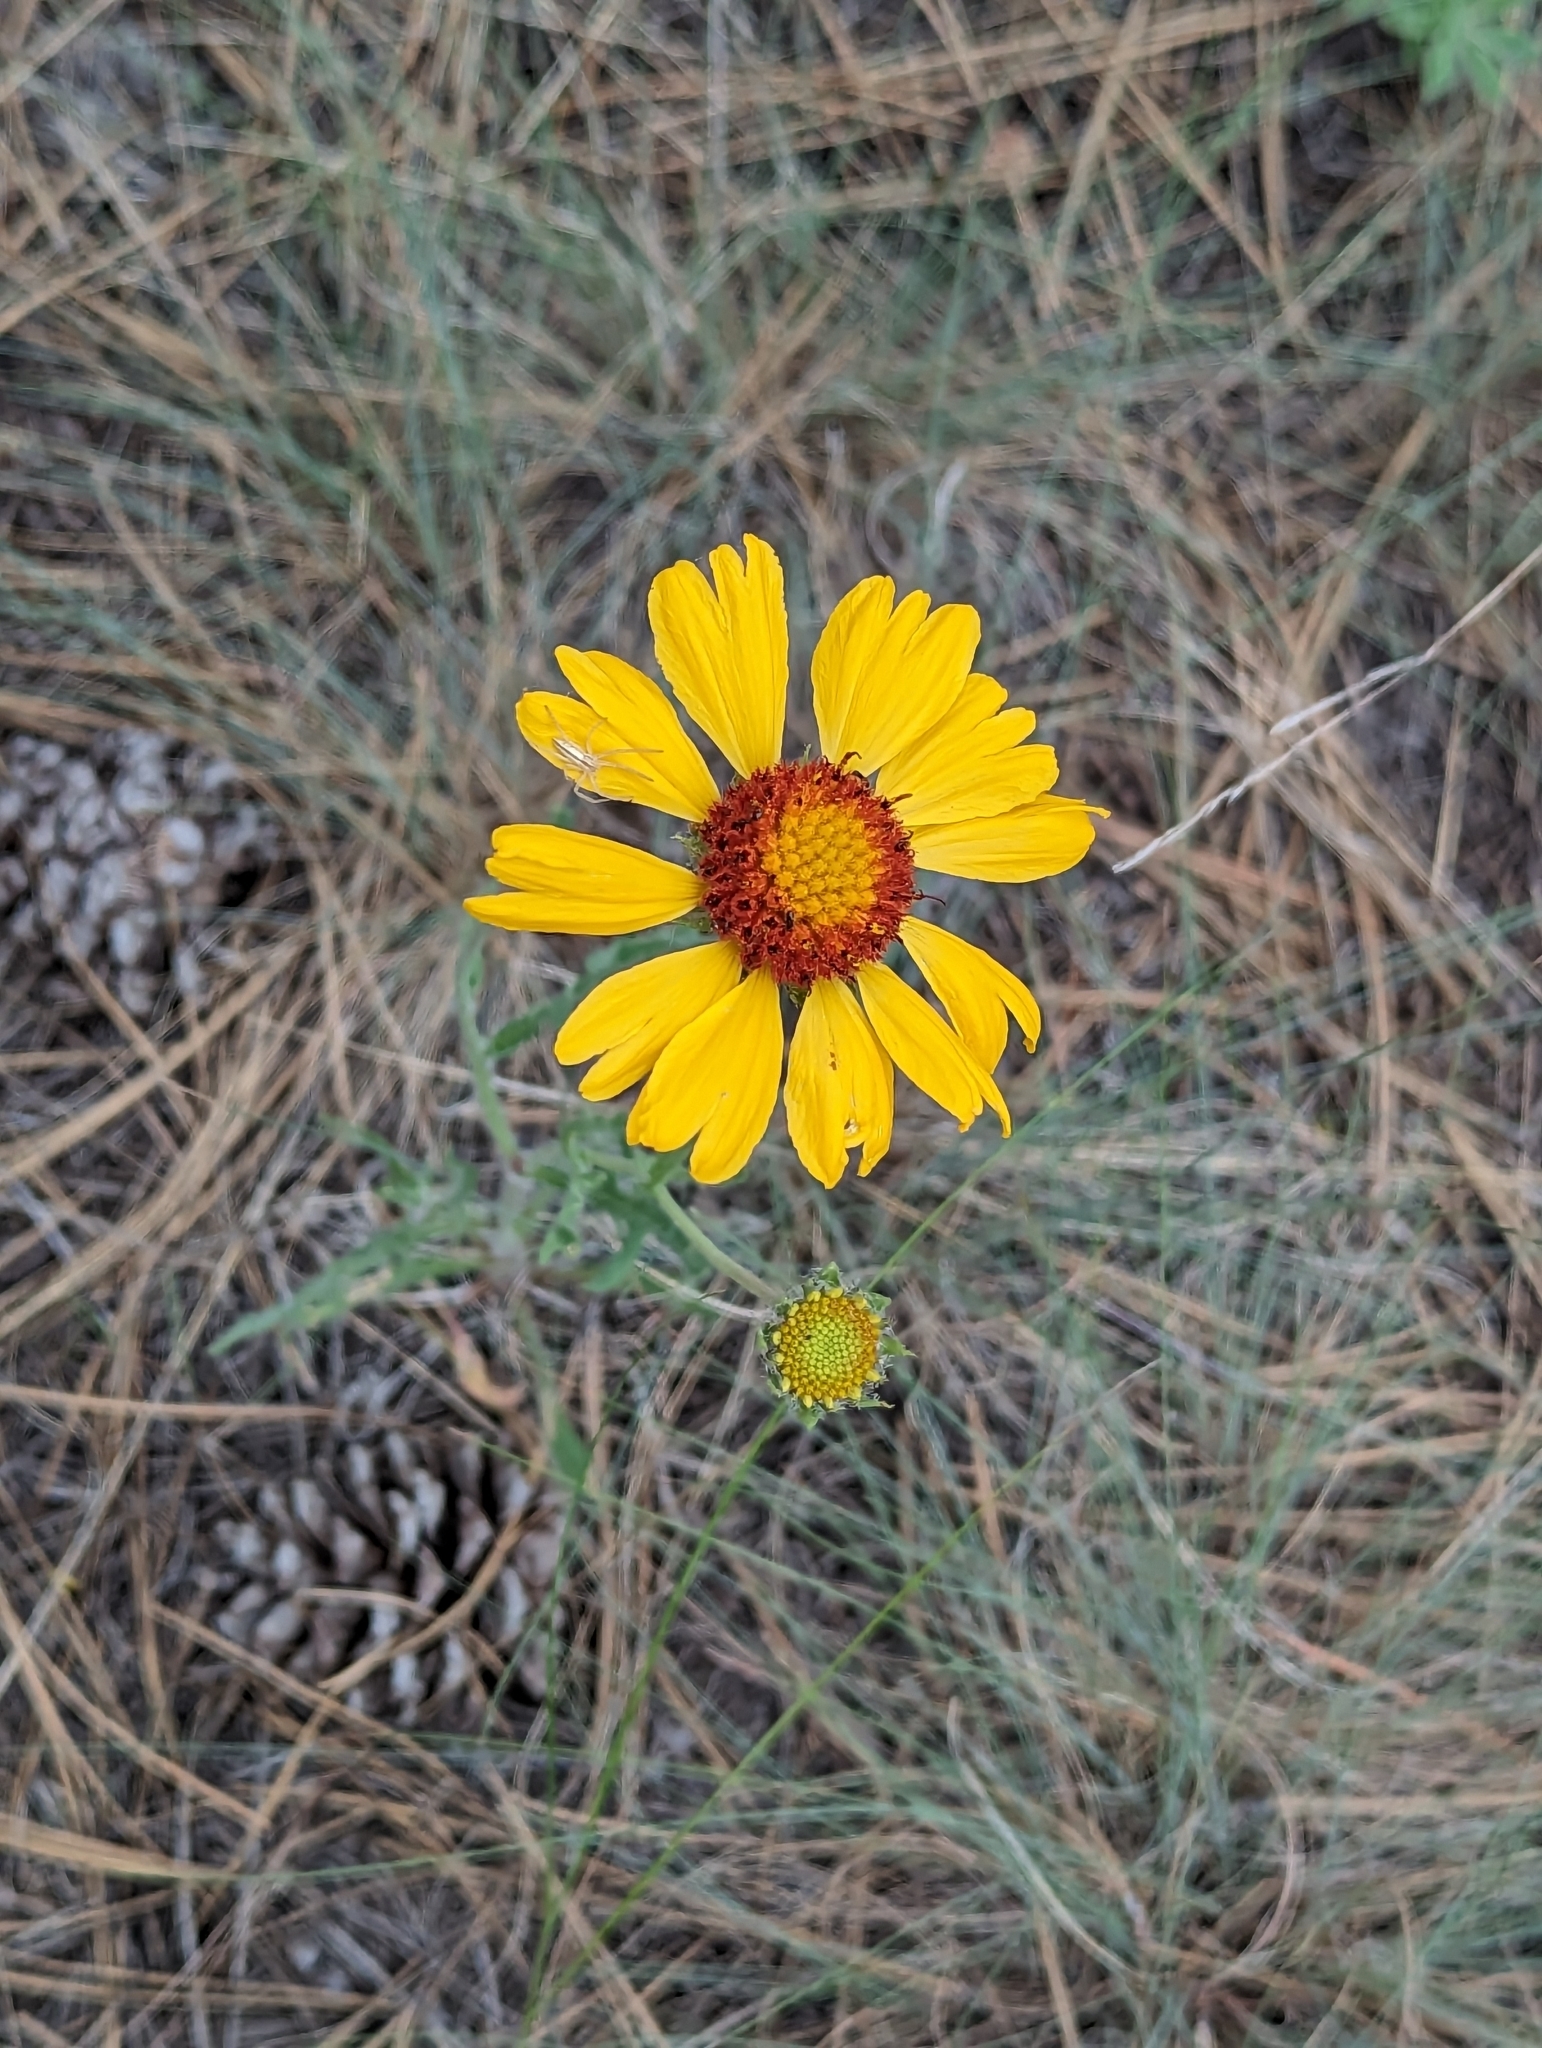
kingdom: Plantae
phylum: Tracheophyta
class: Magnoliopsida
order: Asterales
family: Asteraceae
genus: Gaillardia
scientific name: Gaillardia aristata
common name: Blanket-flower
